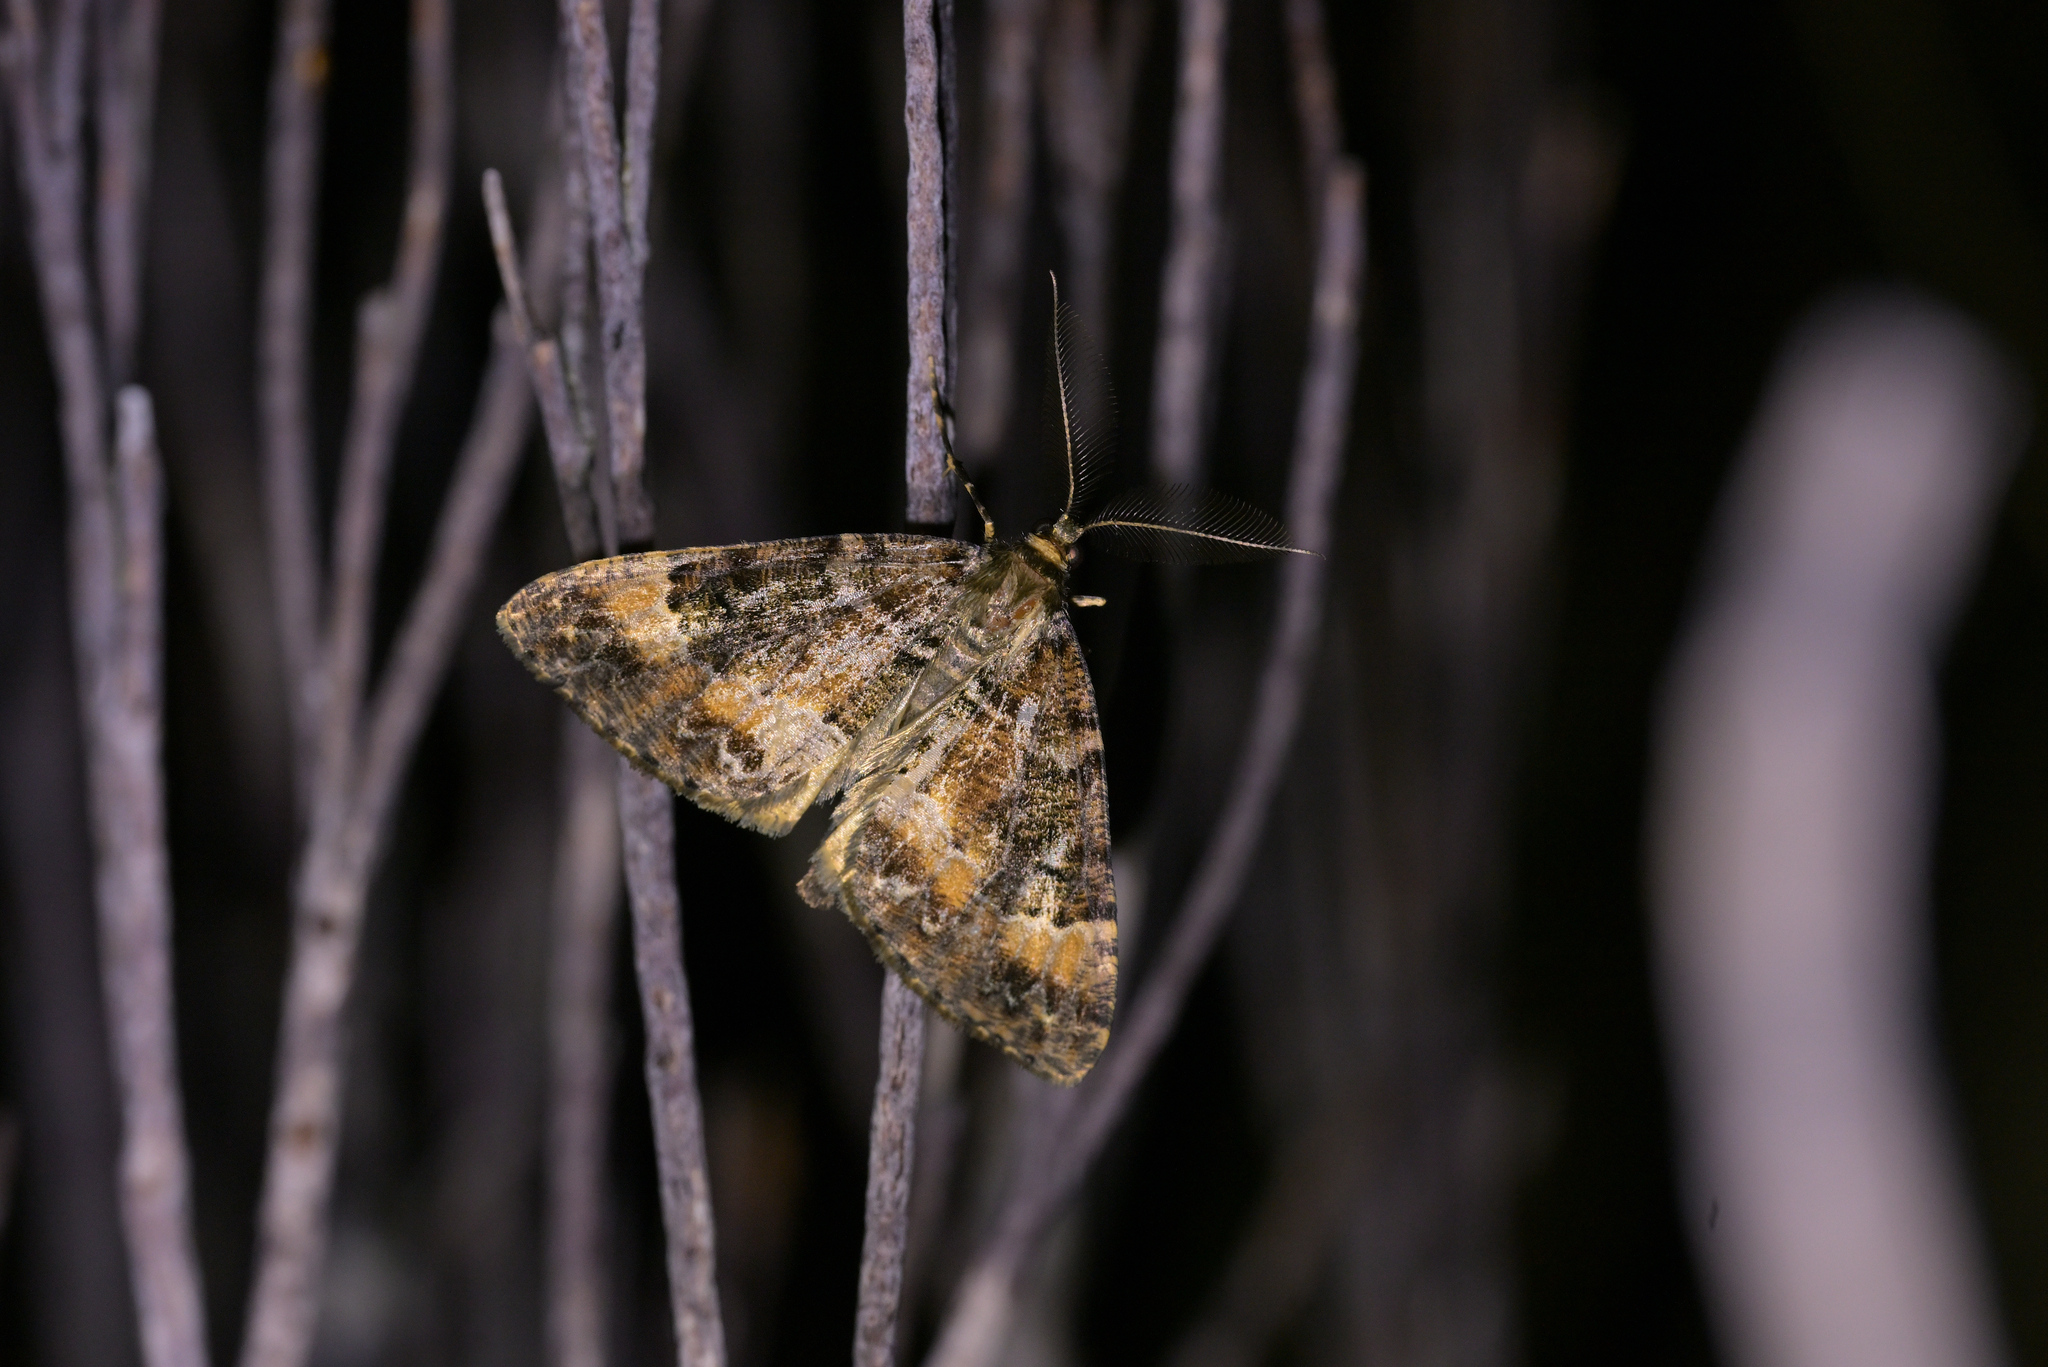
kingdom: Animalia
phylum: Arthropoda
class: Insecta
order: Lepidoptera
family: Geometridae
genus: Pseudocoremia
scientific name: Pseudocoremia productata
